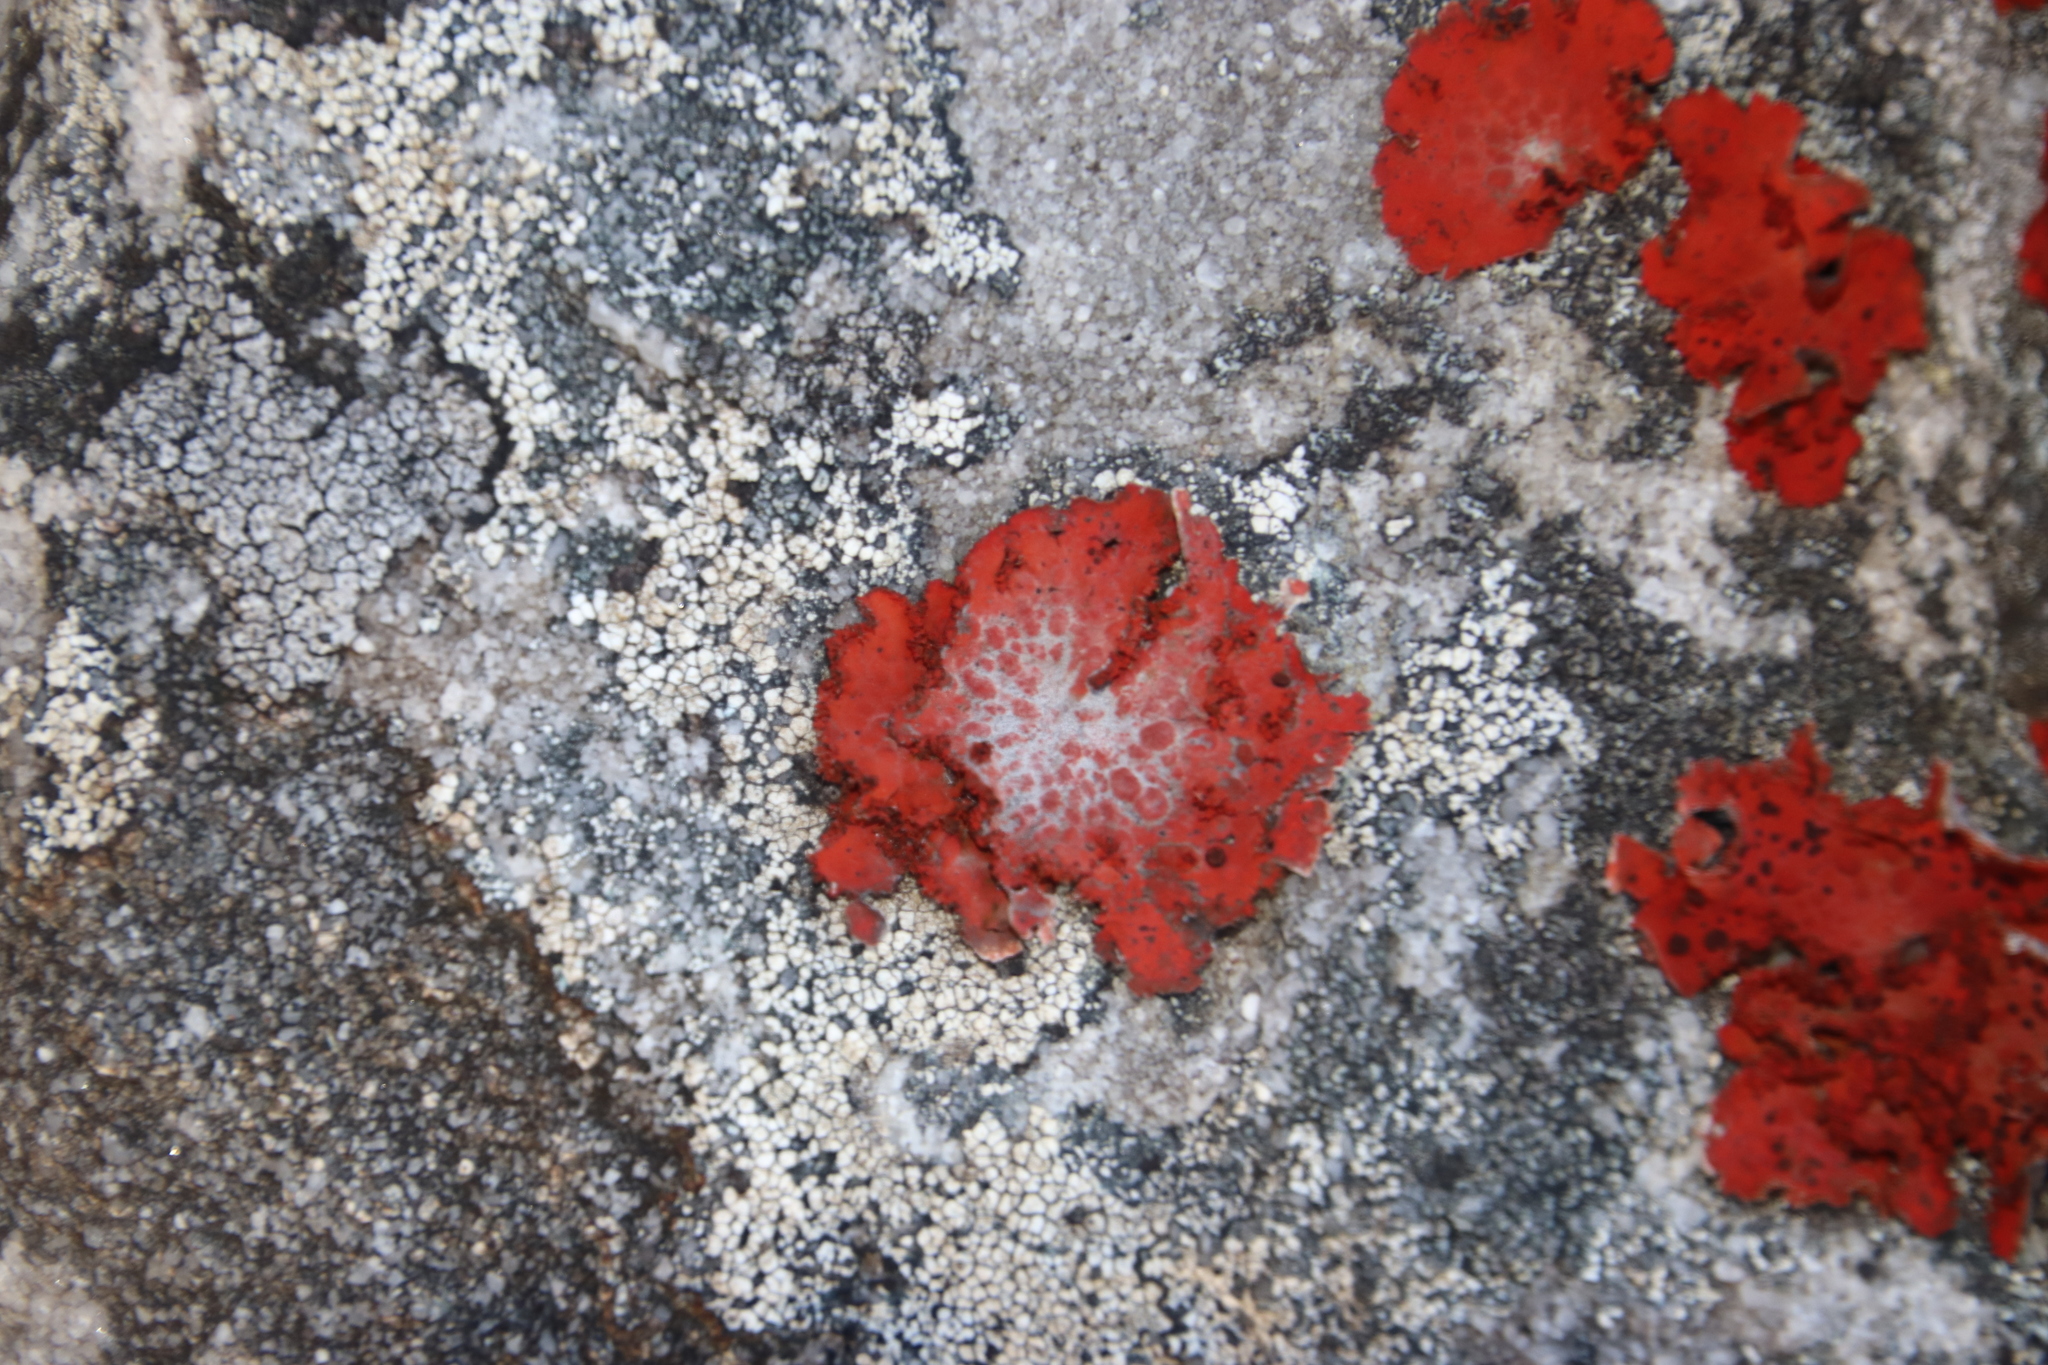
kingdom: Fungi
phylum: Ascomycota
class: Lecanoromycetes
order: Umbilicariales
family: Umbilicariaceae
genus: Lasallia
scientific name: Lasallia rubiginosa
